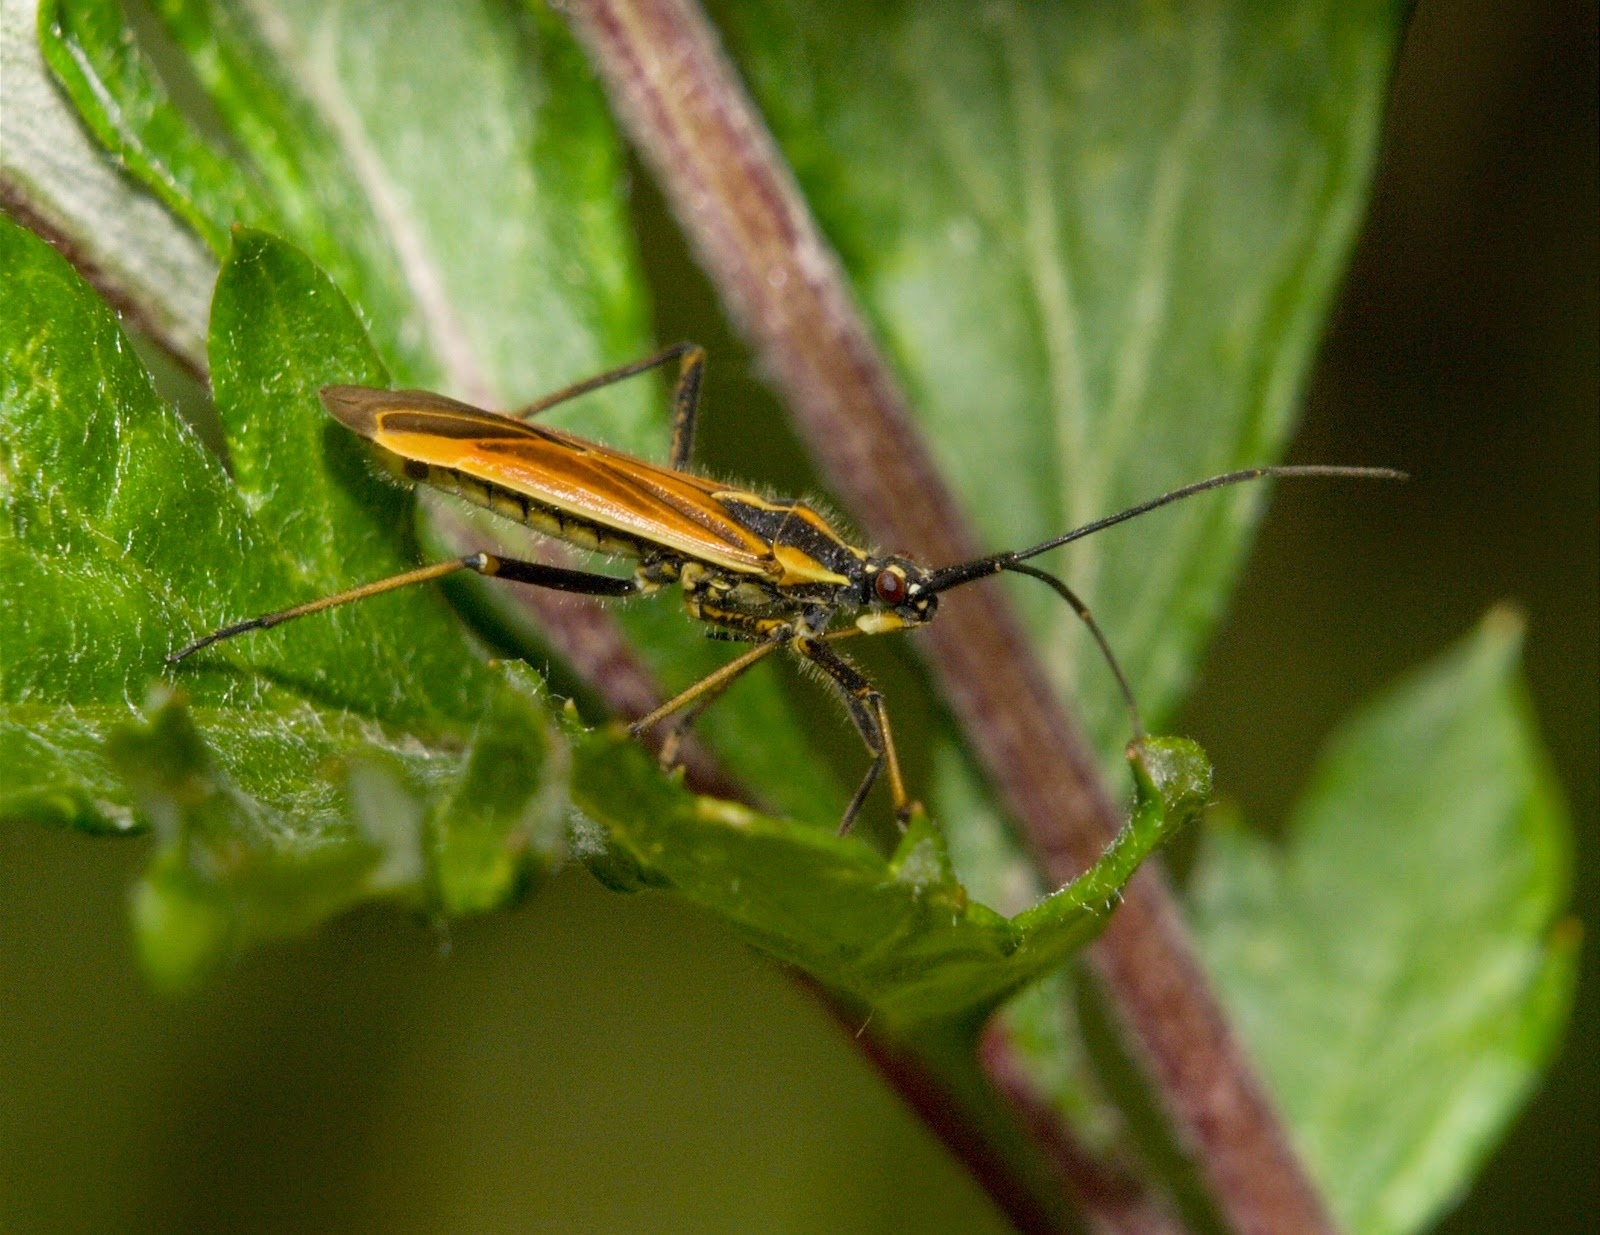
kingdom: Animalia
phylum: Arthropoda
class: Insecta
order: Hemiptera
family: Miridae
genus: Leptopterna
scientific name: Leptopterna dolabrata
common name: Meadow plant bug
